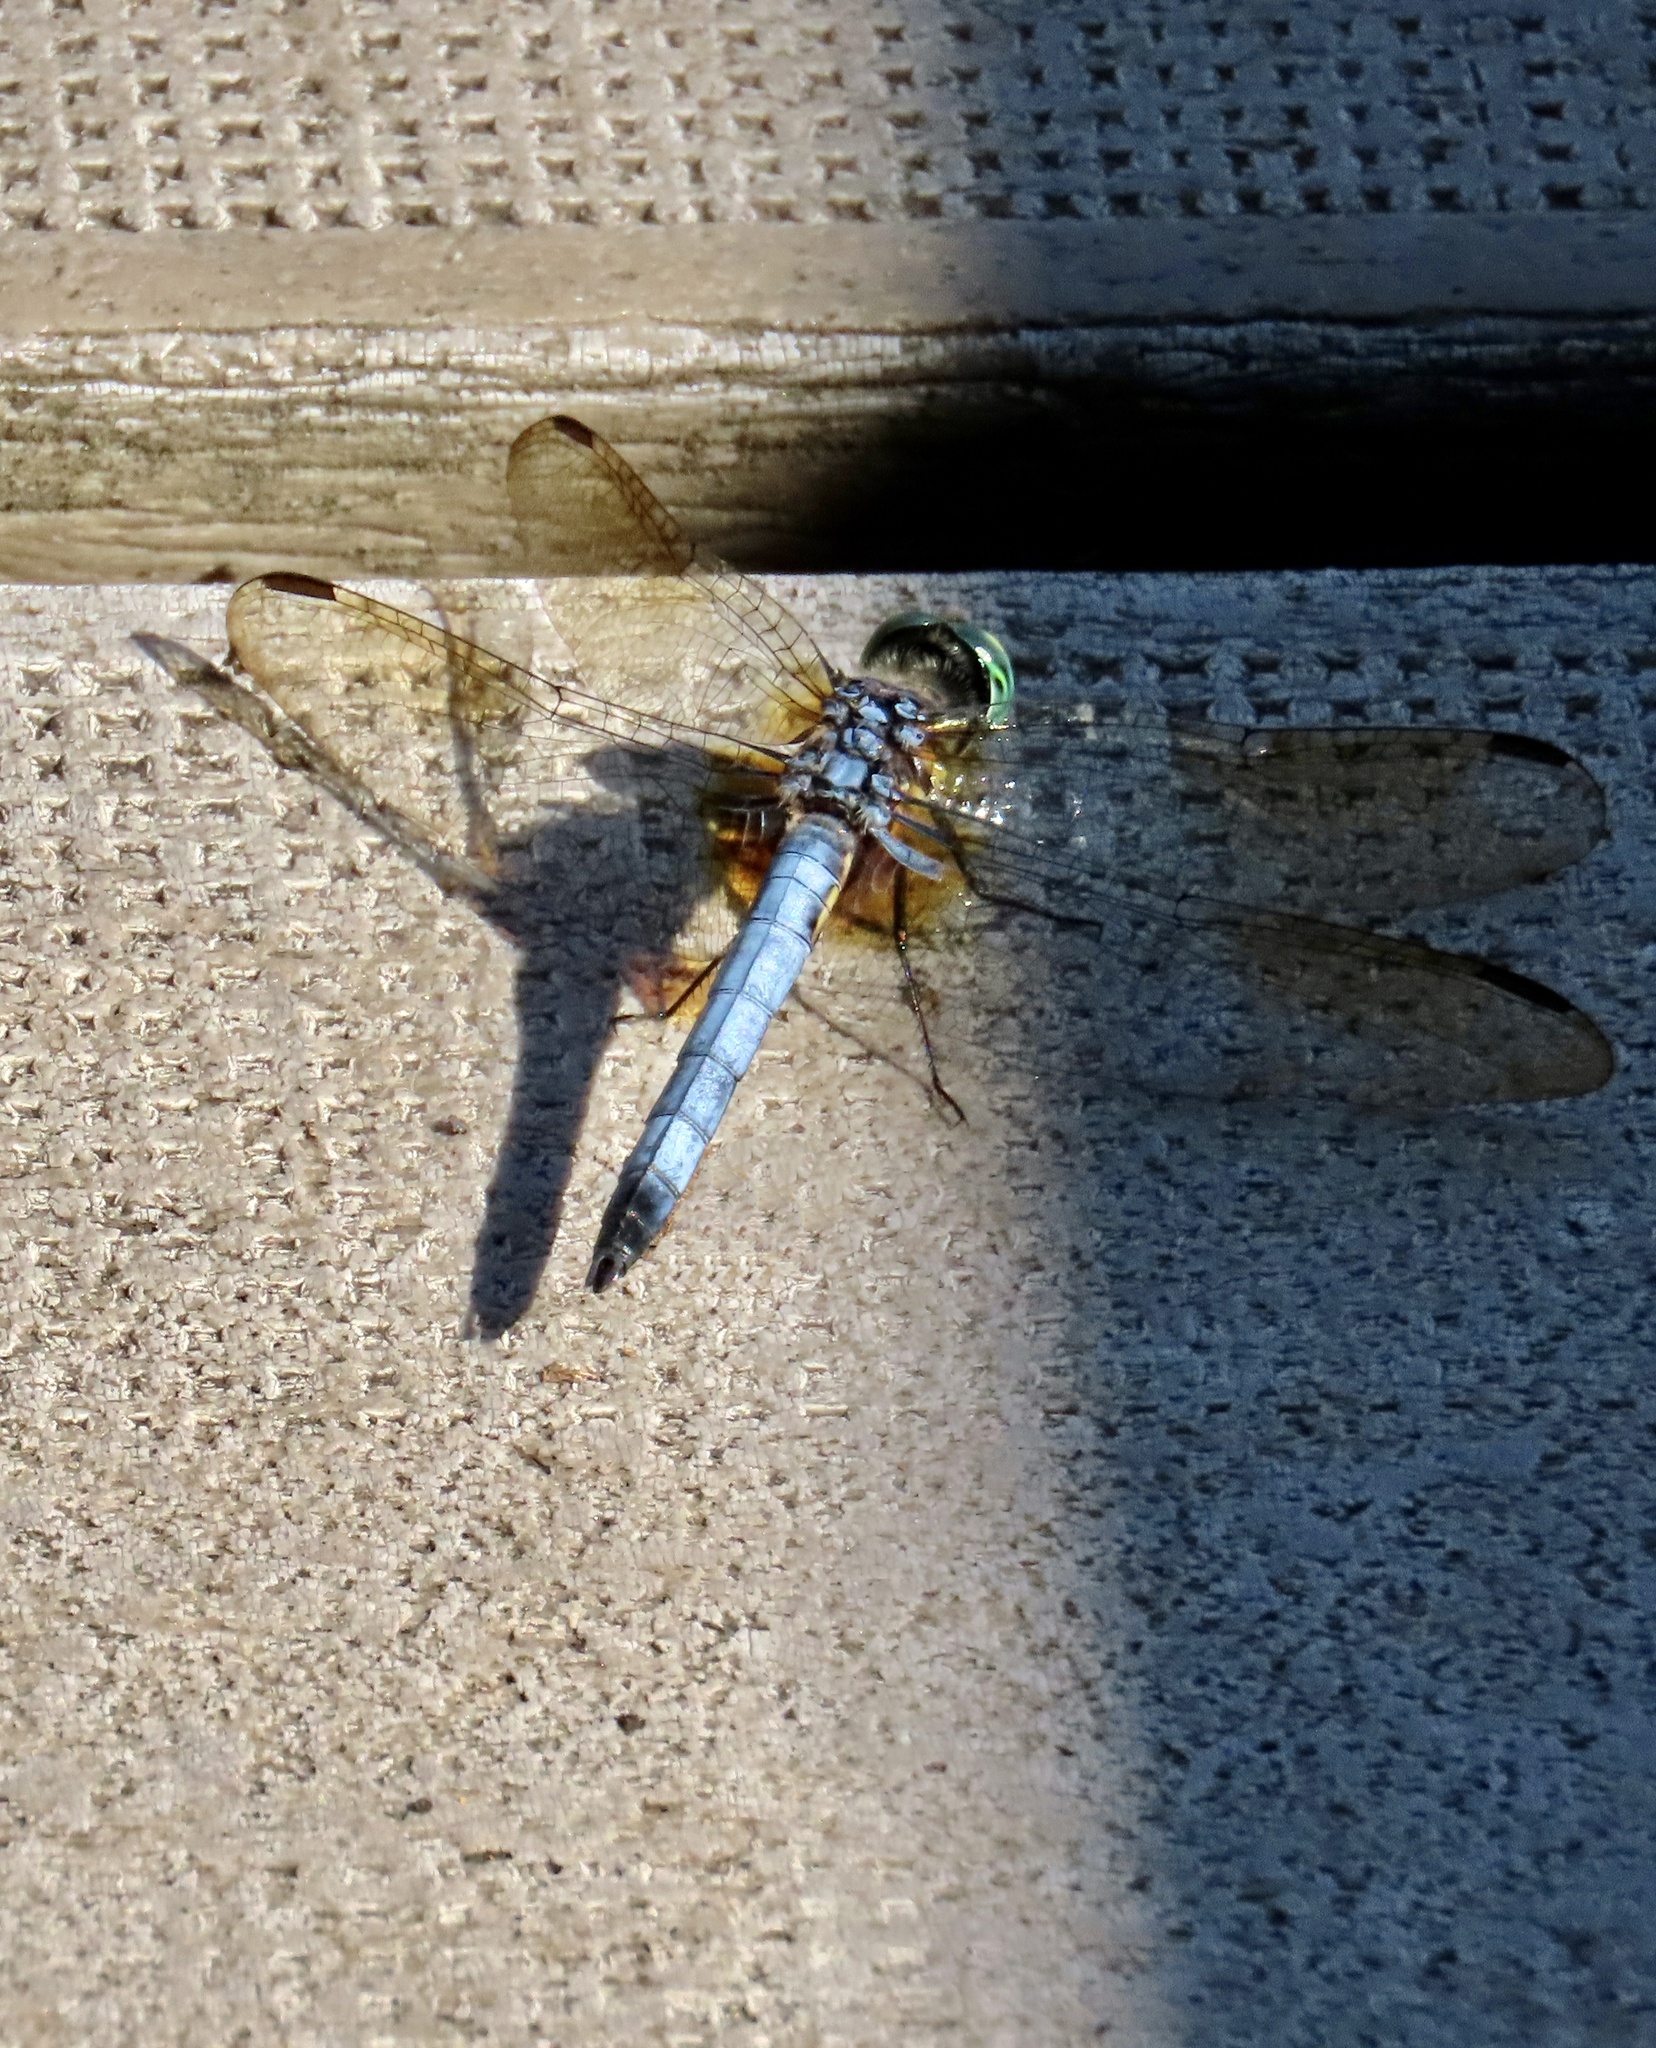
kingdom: Animalia
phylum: Arthropoda
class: Insecta
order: Odonata
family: Libellulidae
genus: Pachydiplax
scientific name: Pachydiplax longipennis
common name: Blue dasher
